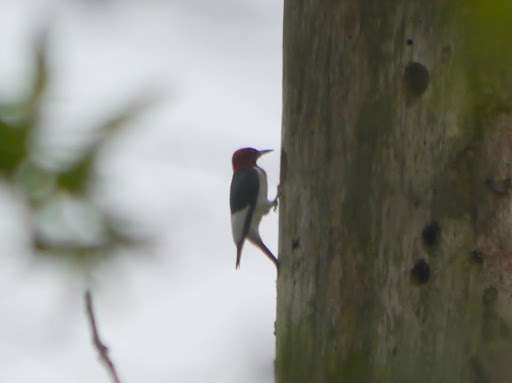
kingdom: Animalia
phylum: Chordata
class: Aves
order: Piciformes
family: Picidae
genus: Melanerpes
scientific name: Melanerpes erythrocephalus
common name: Red-headed woodpecker
